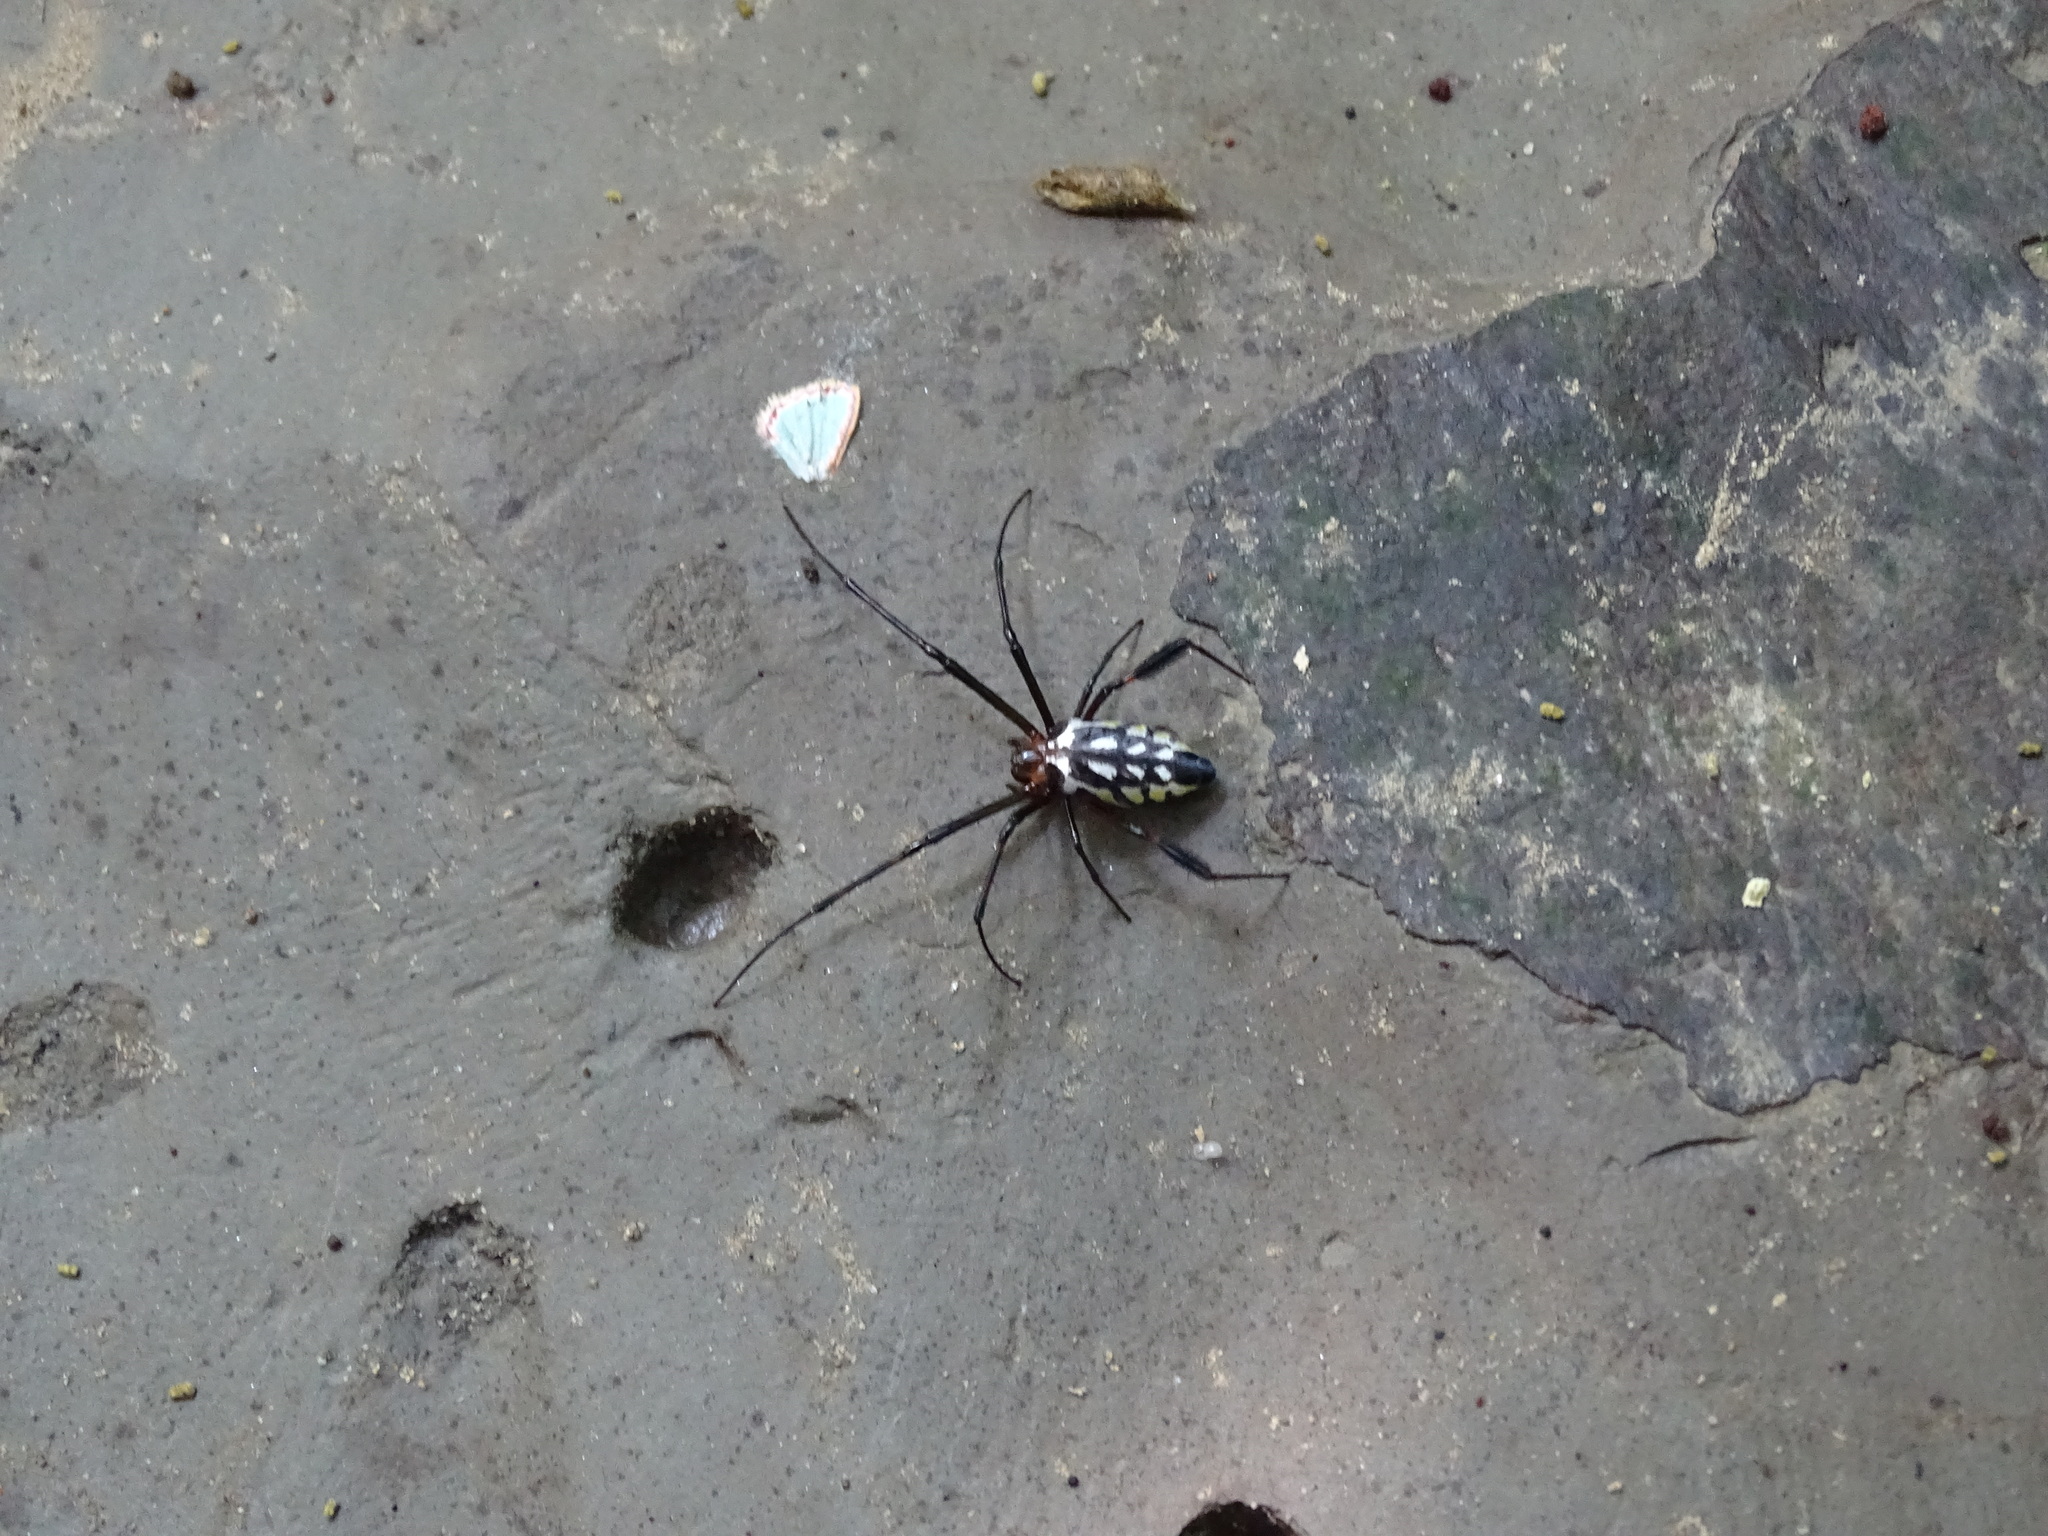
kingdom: Animalia
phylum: Arthropoda
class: Arachnida
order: Araneae
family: Tetragnathidae
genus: Leucauge
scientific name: Leucauge tessellata
